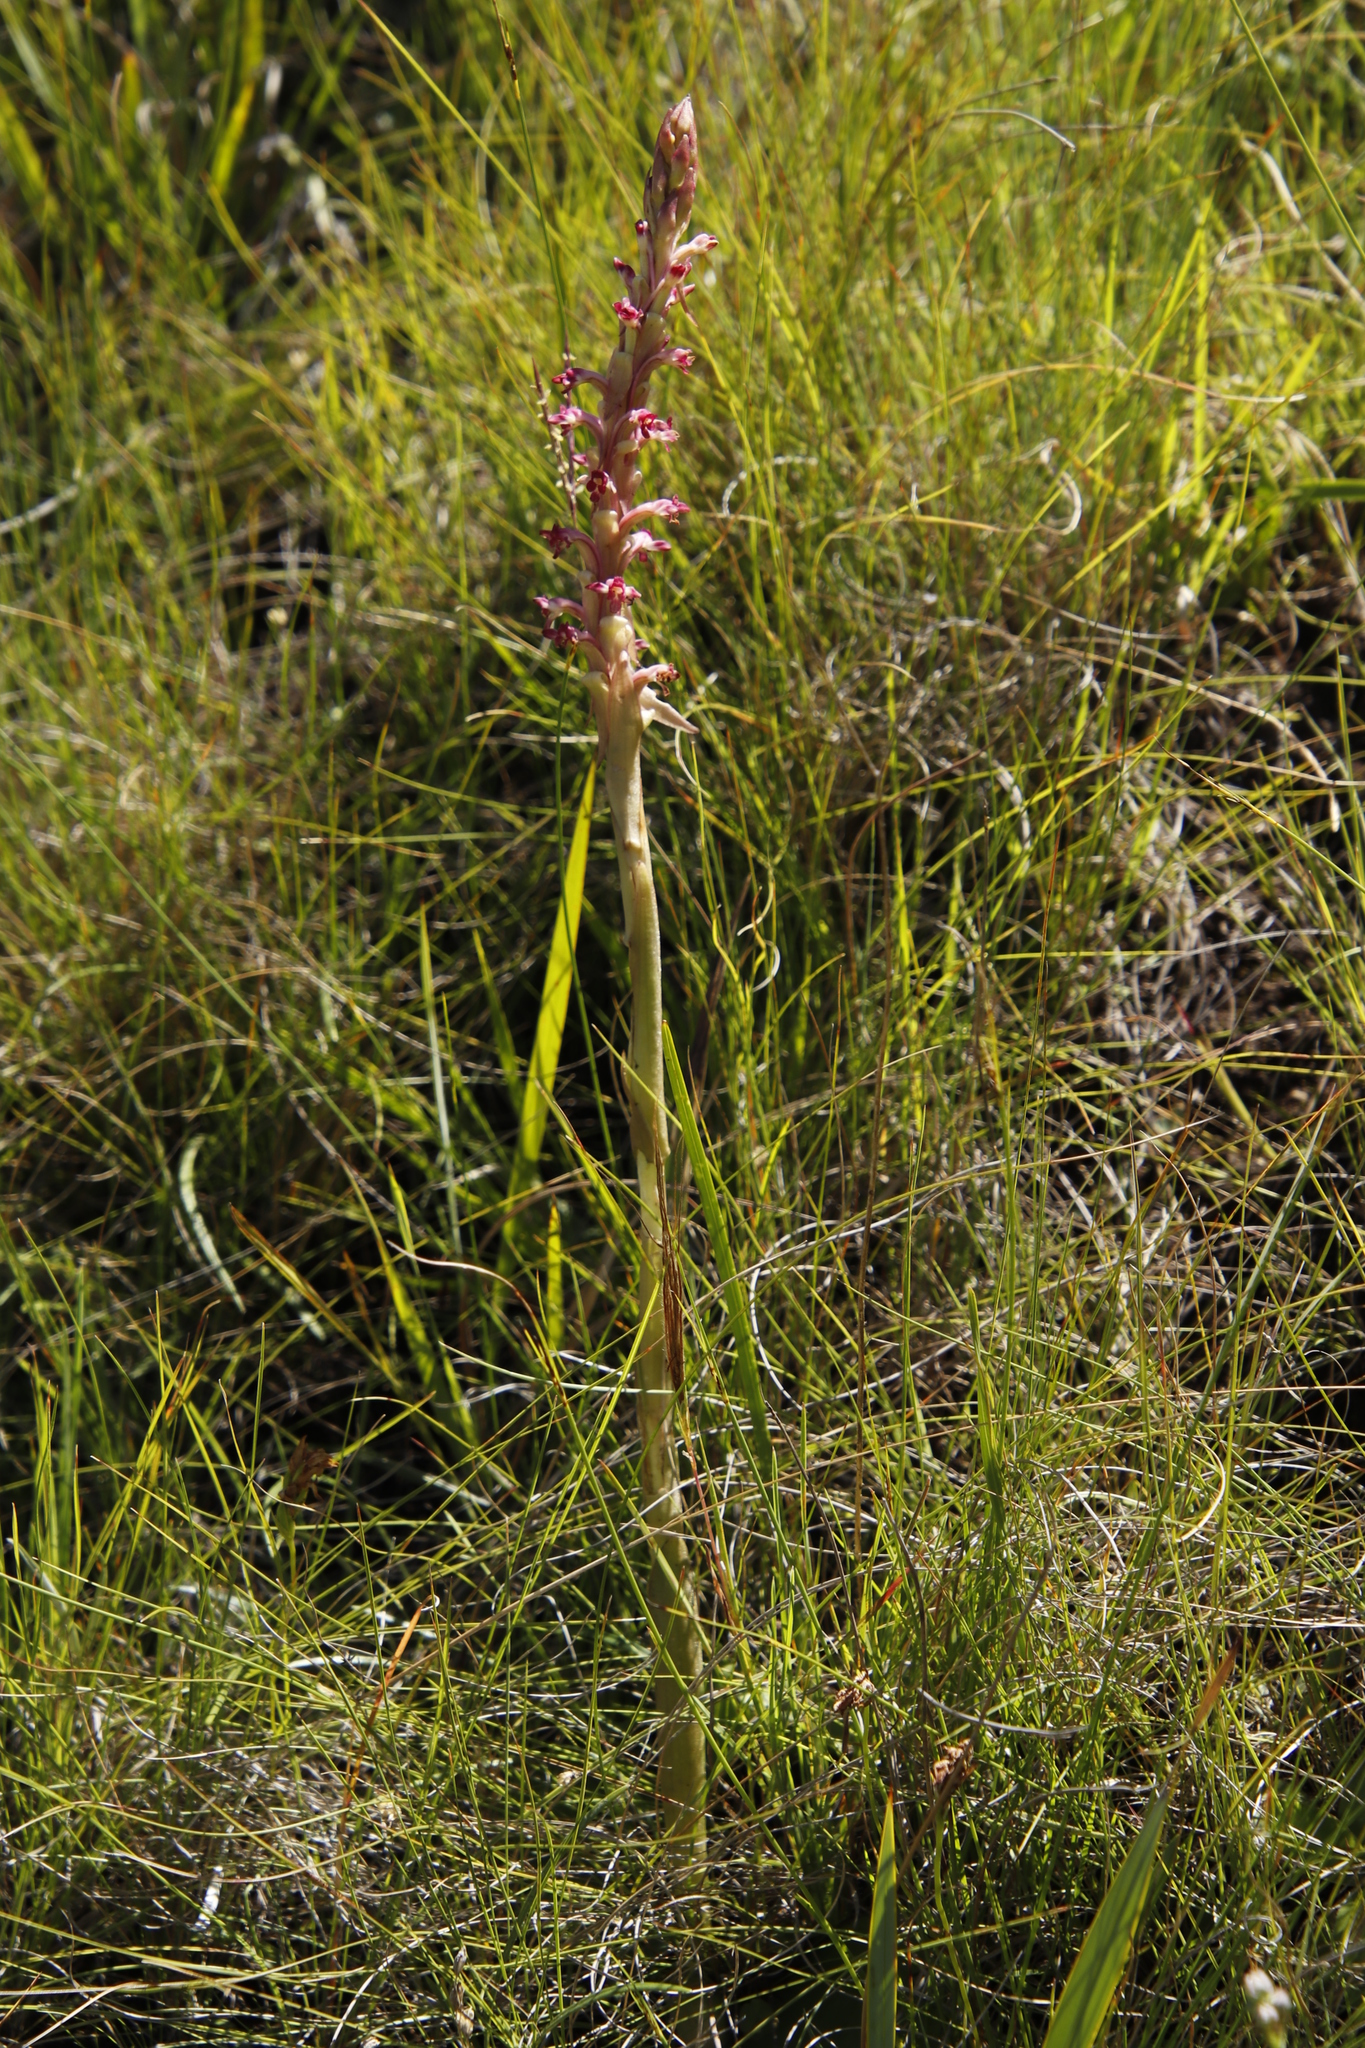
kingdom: Plantae
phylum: Tracheophyta
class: Liliopsida
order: Asparagales
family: Orchidaceae
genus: Satyrium
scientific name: Satyrium longicauda
